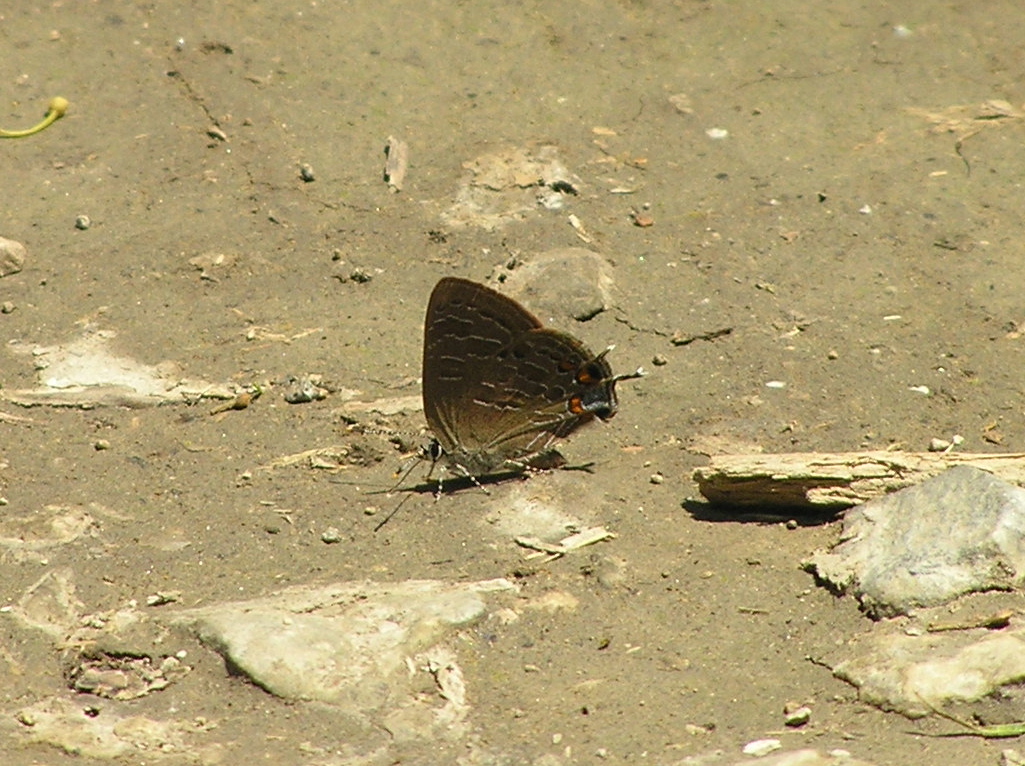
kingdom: Animalia
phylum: Arthropoda
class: Insecta
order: Lepidoptera
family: Lycaenidae
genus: Satyrium
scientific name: Satyrium liparops
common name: Striped hairstreak
